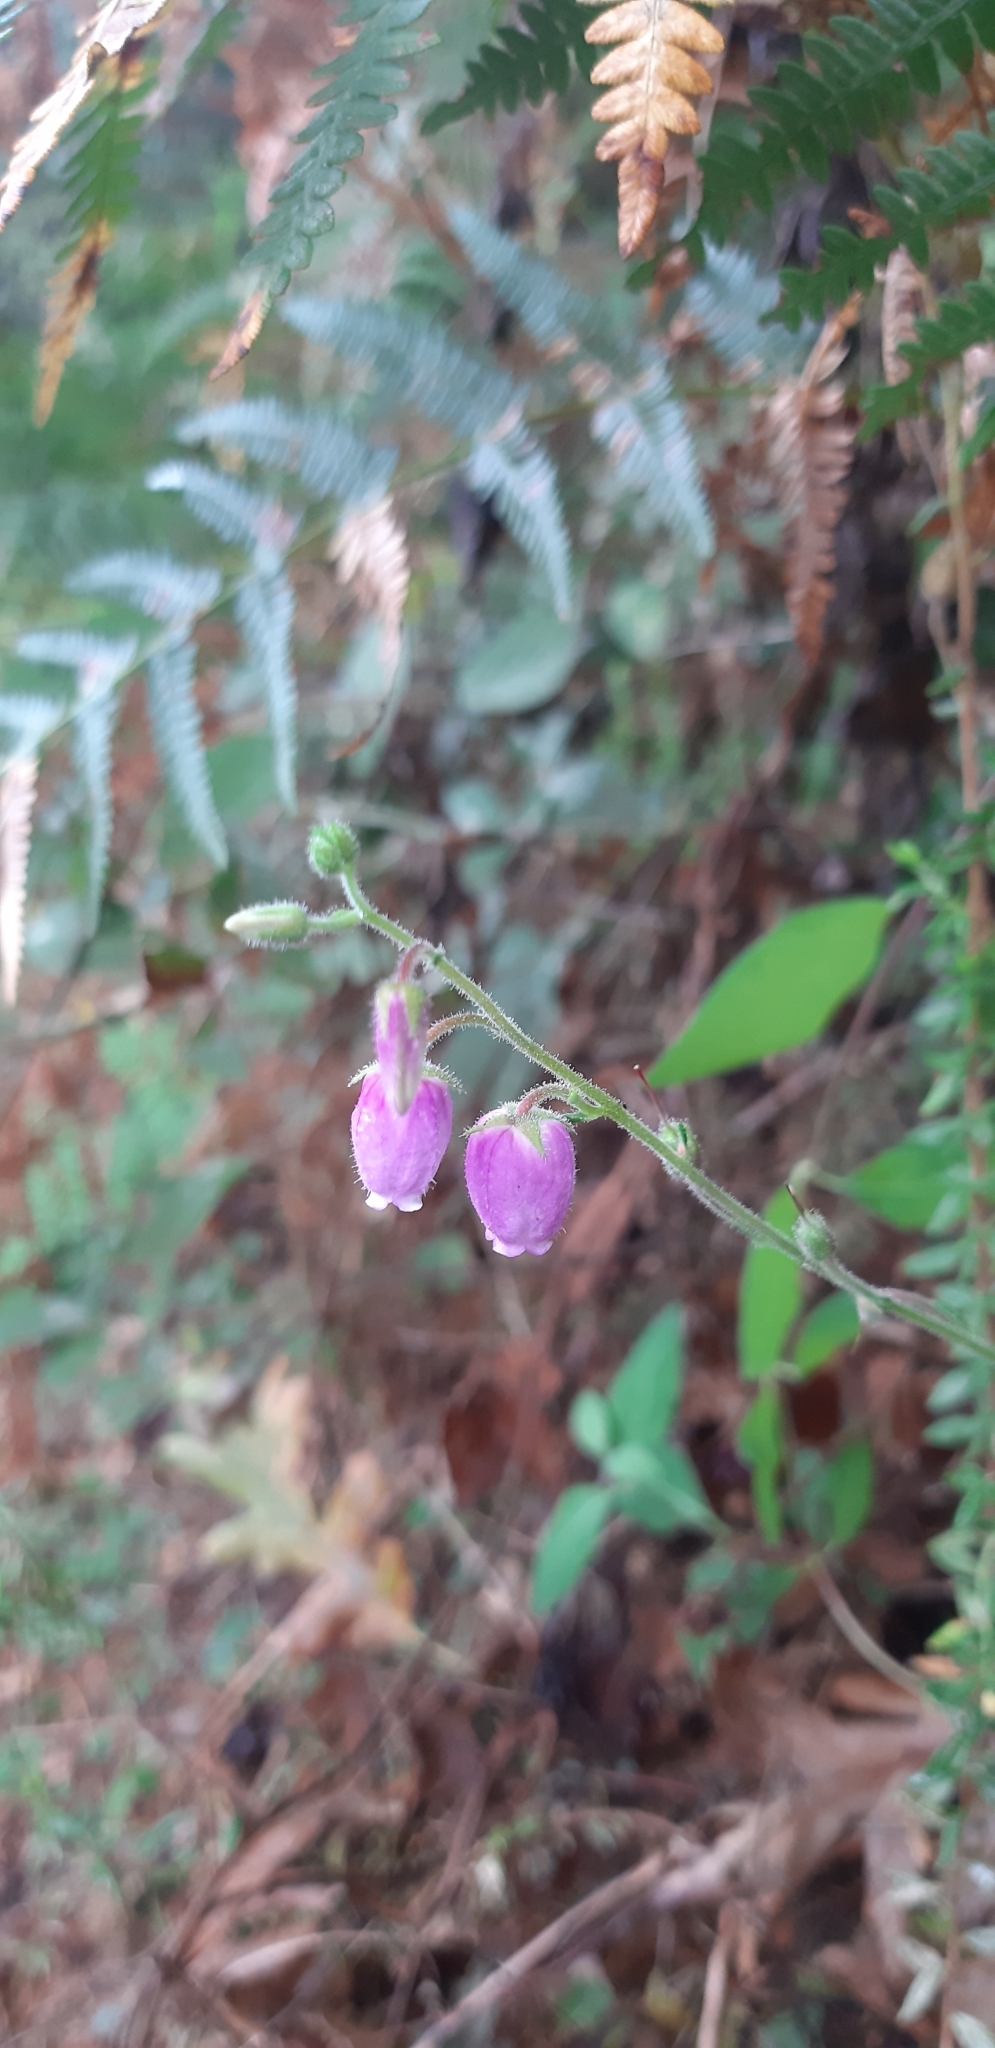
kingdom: Plantae
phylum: Tracheophyta
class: Magnoliopsida
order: Ericales
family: Ericaceae
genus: Daboecia
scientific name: Daboecia cantabrica
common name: St. dabeoc's-heath
